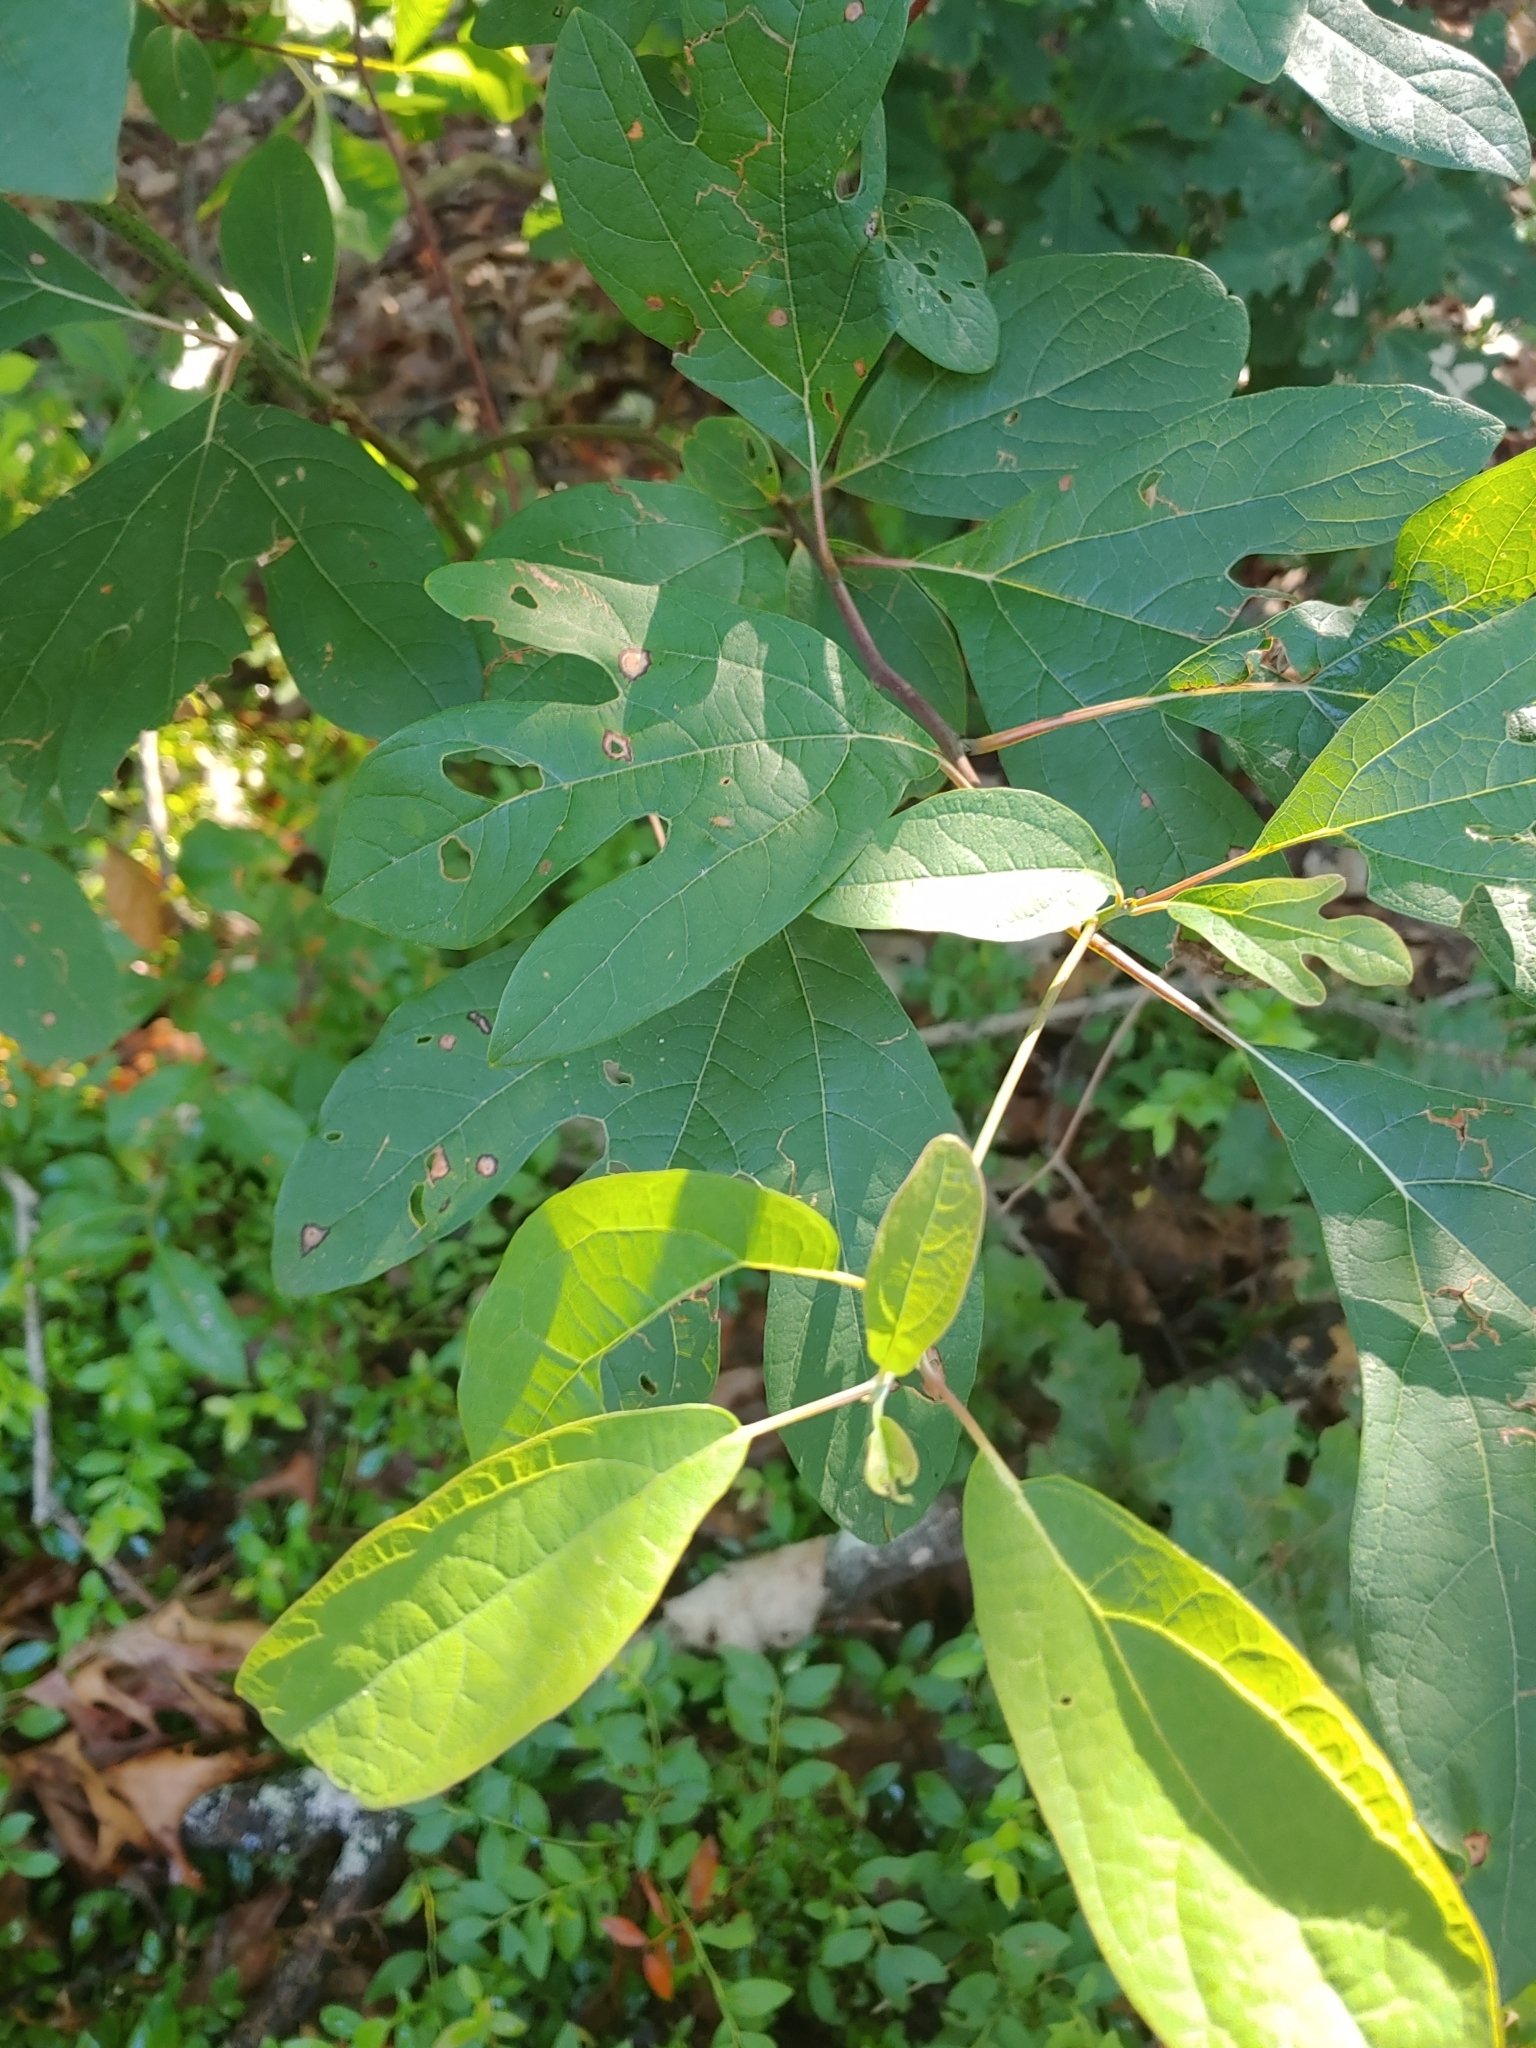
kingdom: Plantae
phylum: Tracheophyta
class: Magnoliopsida
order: Laurales
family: Lauraceae
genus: Sassafras
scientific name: Sassafras albidum
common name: Sassafras
